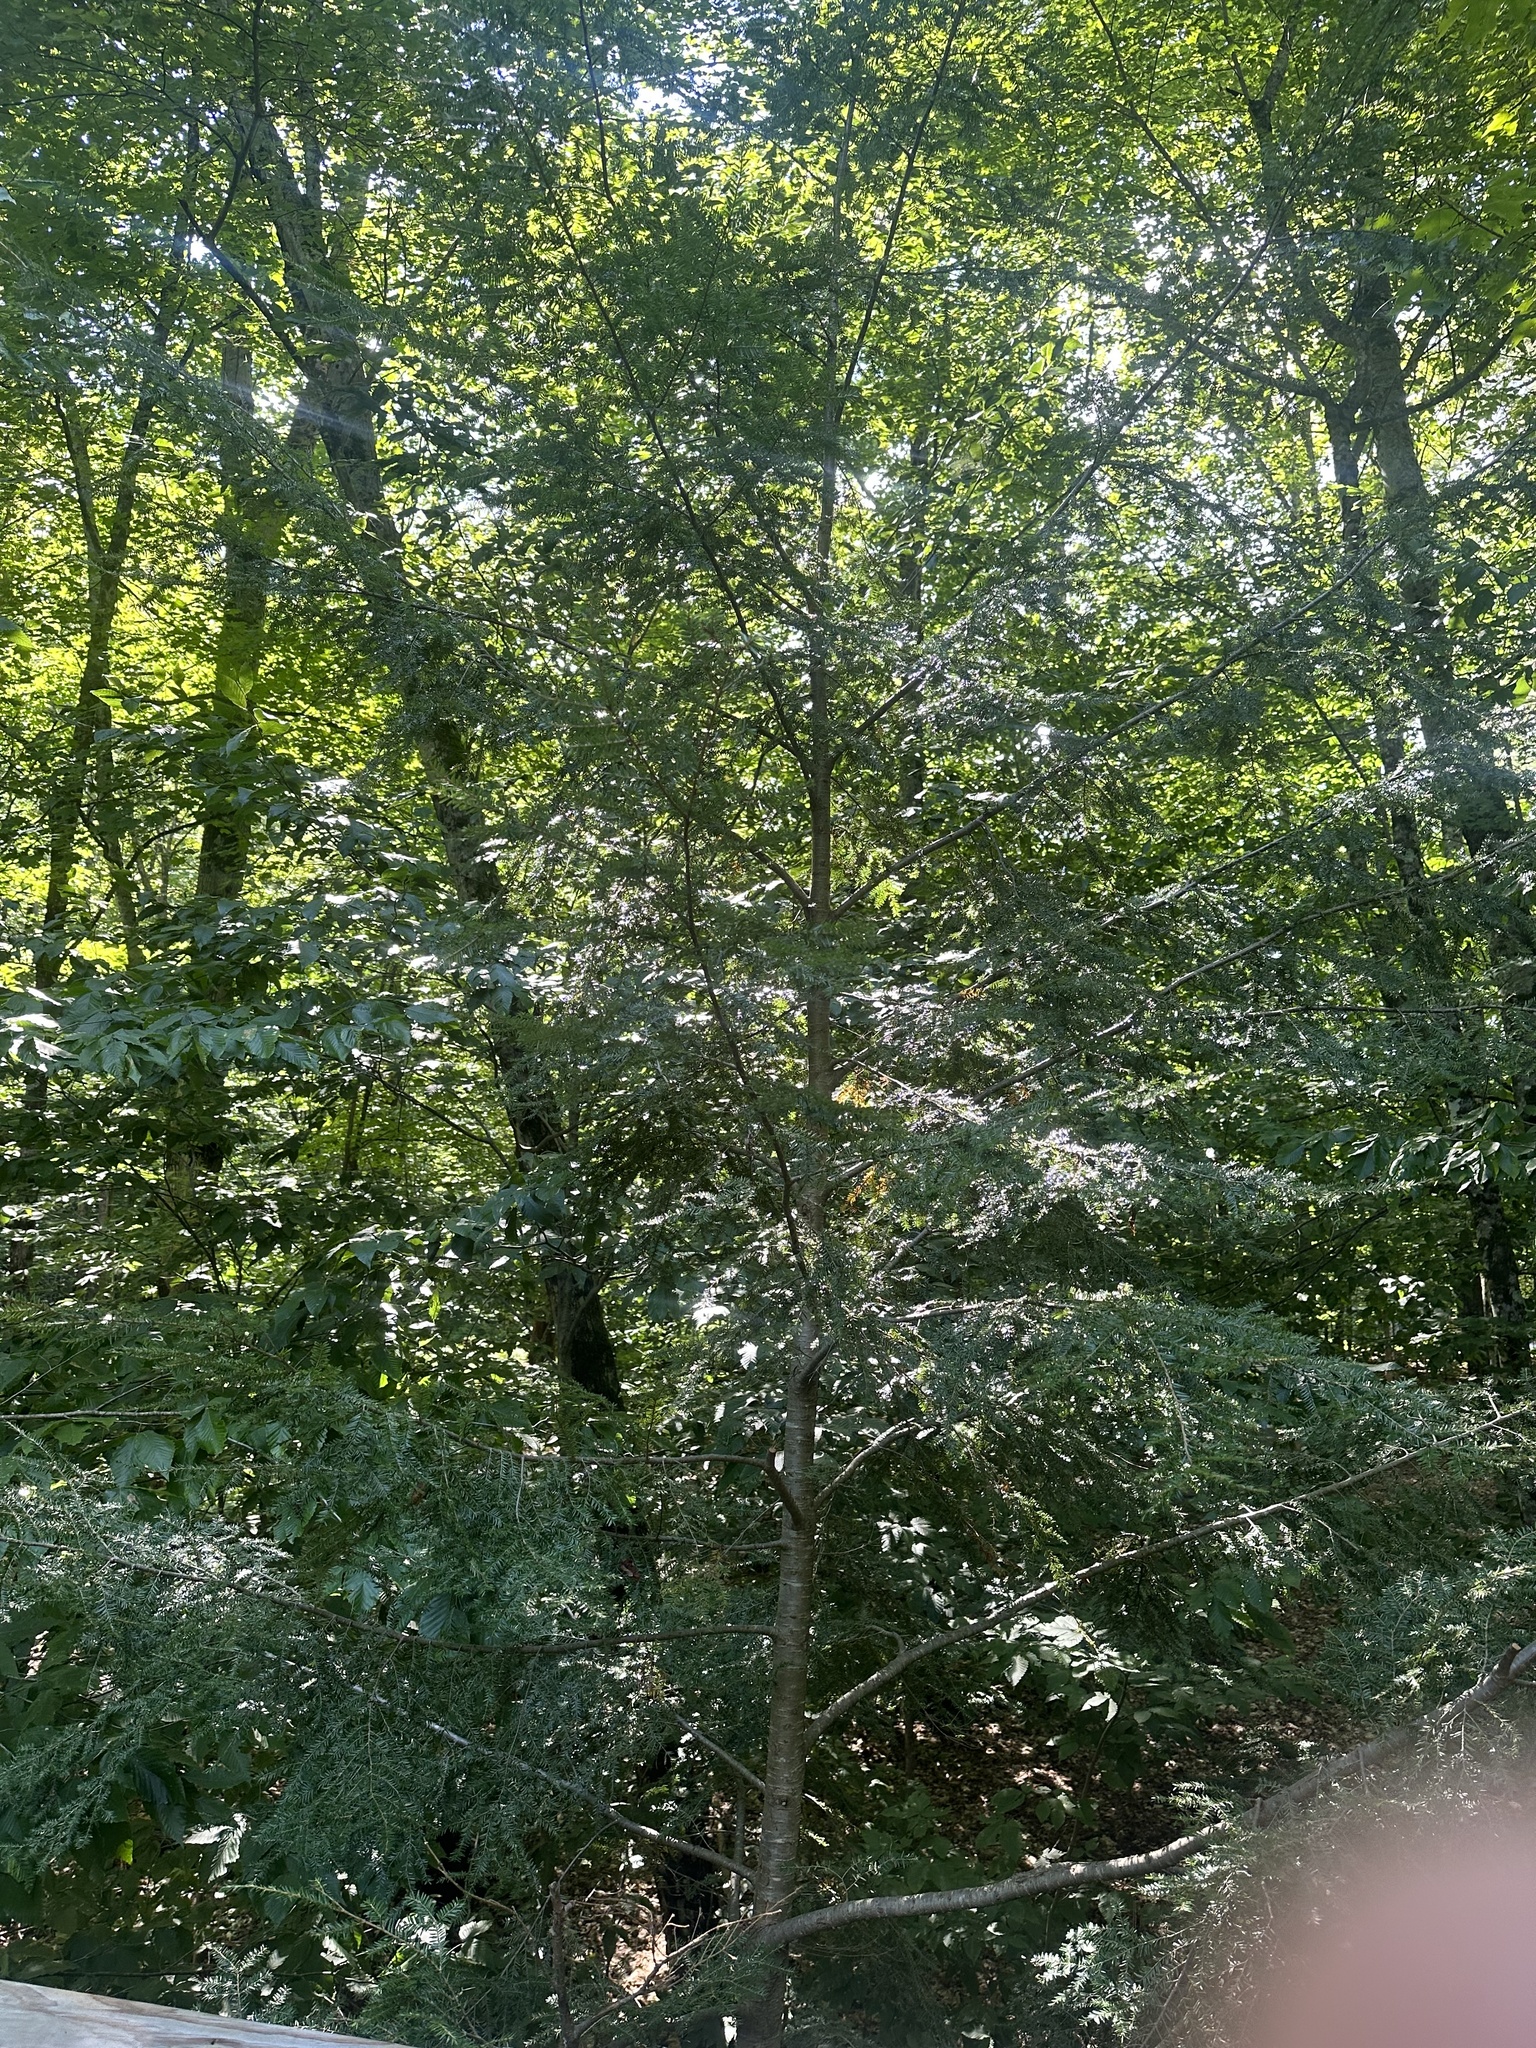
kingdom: Plantae
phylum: Tracheophyta
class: Pinopsida
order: Pinales
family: Pinaceae
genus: Tsuga
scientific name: Tsuga canadensis
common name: Eastern hemlock
